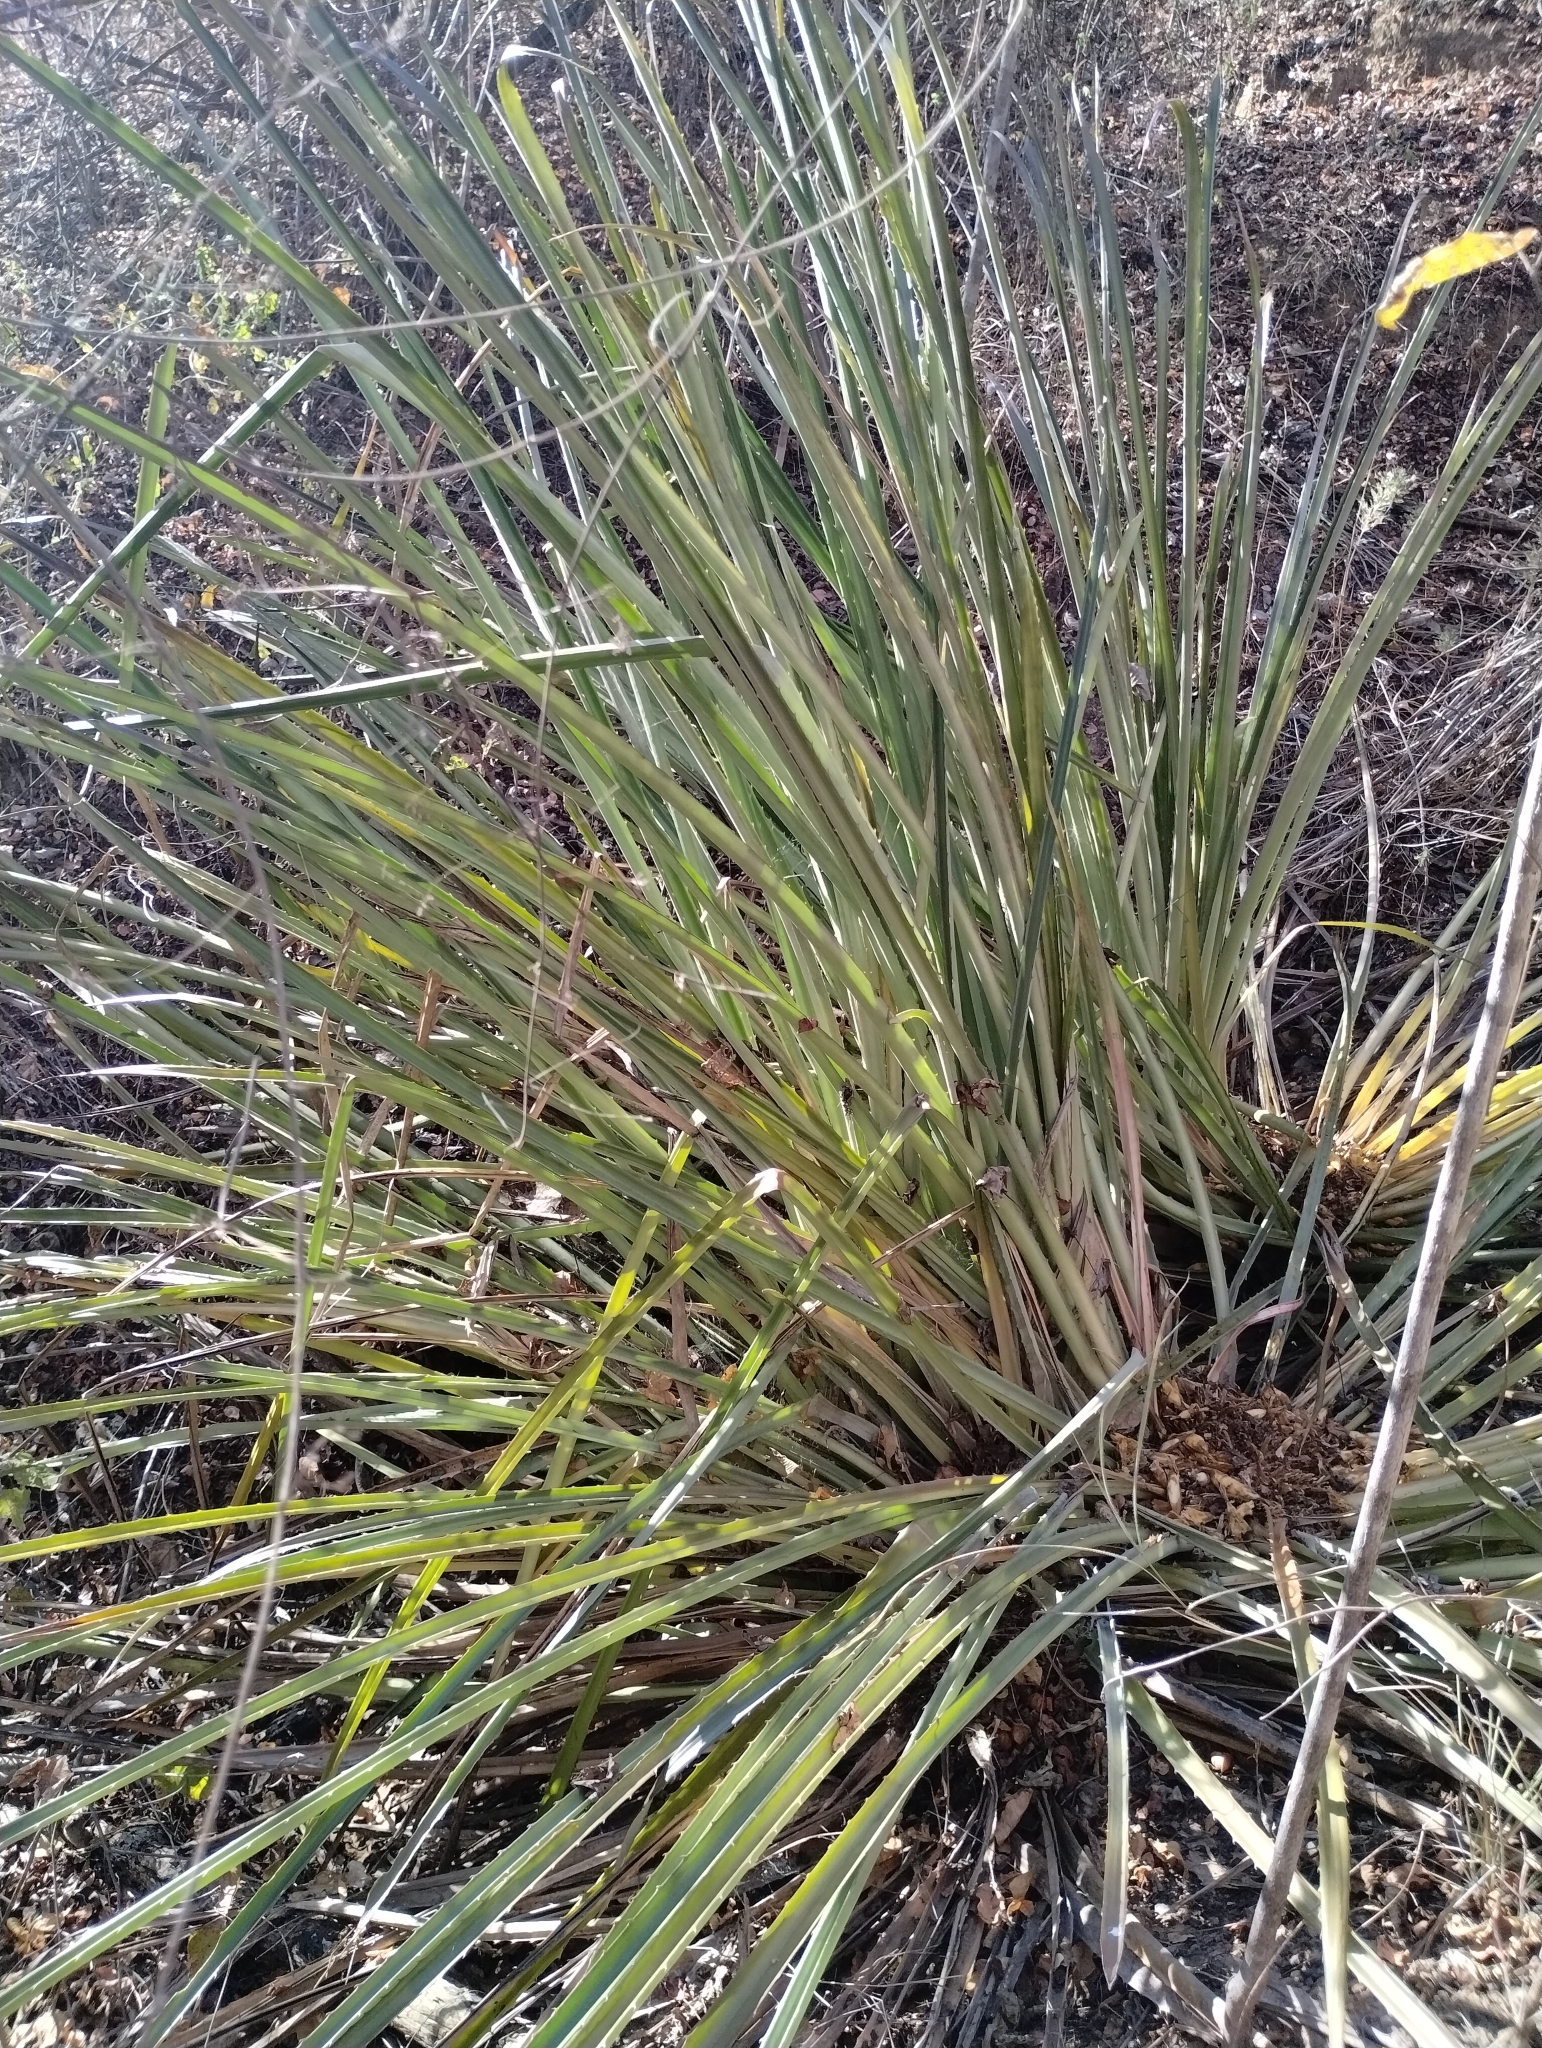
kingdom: Plantae
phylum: Tracheophyta
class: Liliopsida
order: Poales
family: Bromeliaceae
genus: Bromelia
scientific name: Bromelia grandiflora
